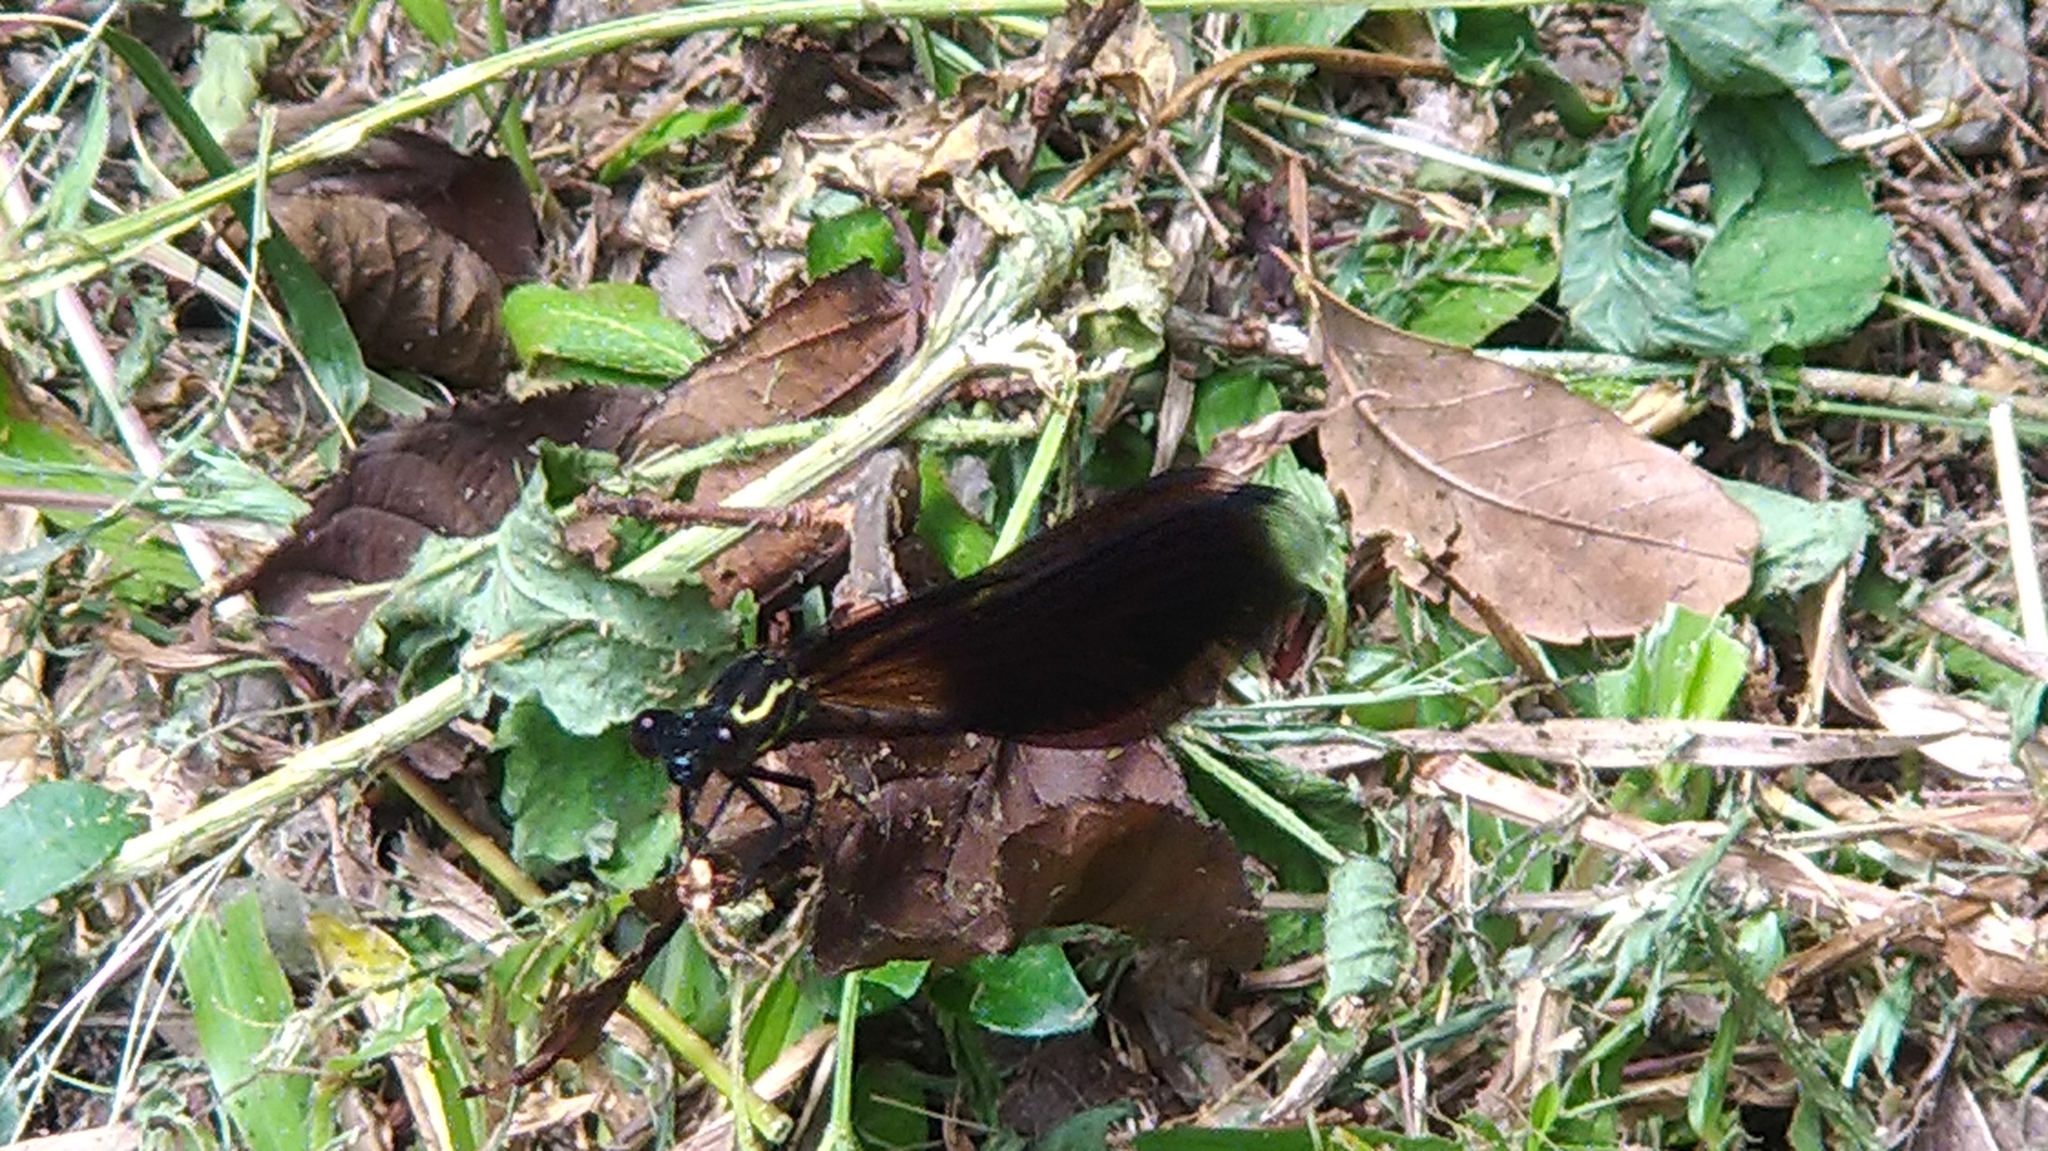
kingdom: Animalia
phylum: Arthropoda
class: Insecta
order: Odonata
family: Euphaeidae
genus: Euphaea
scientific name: Euphaea formosa
